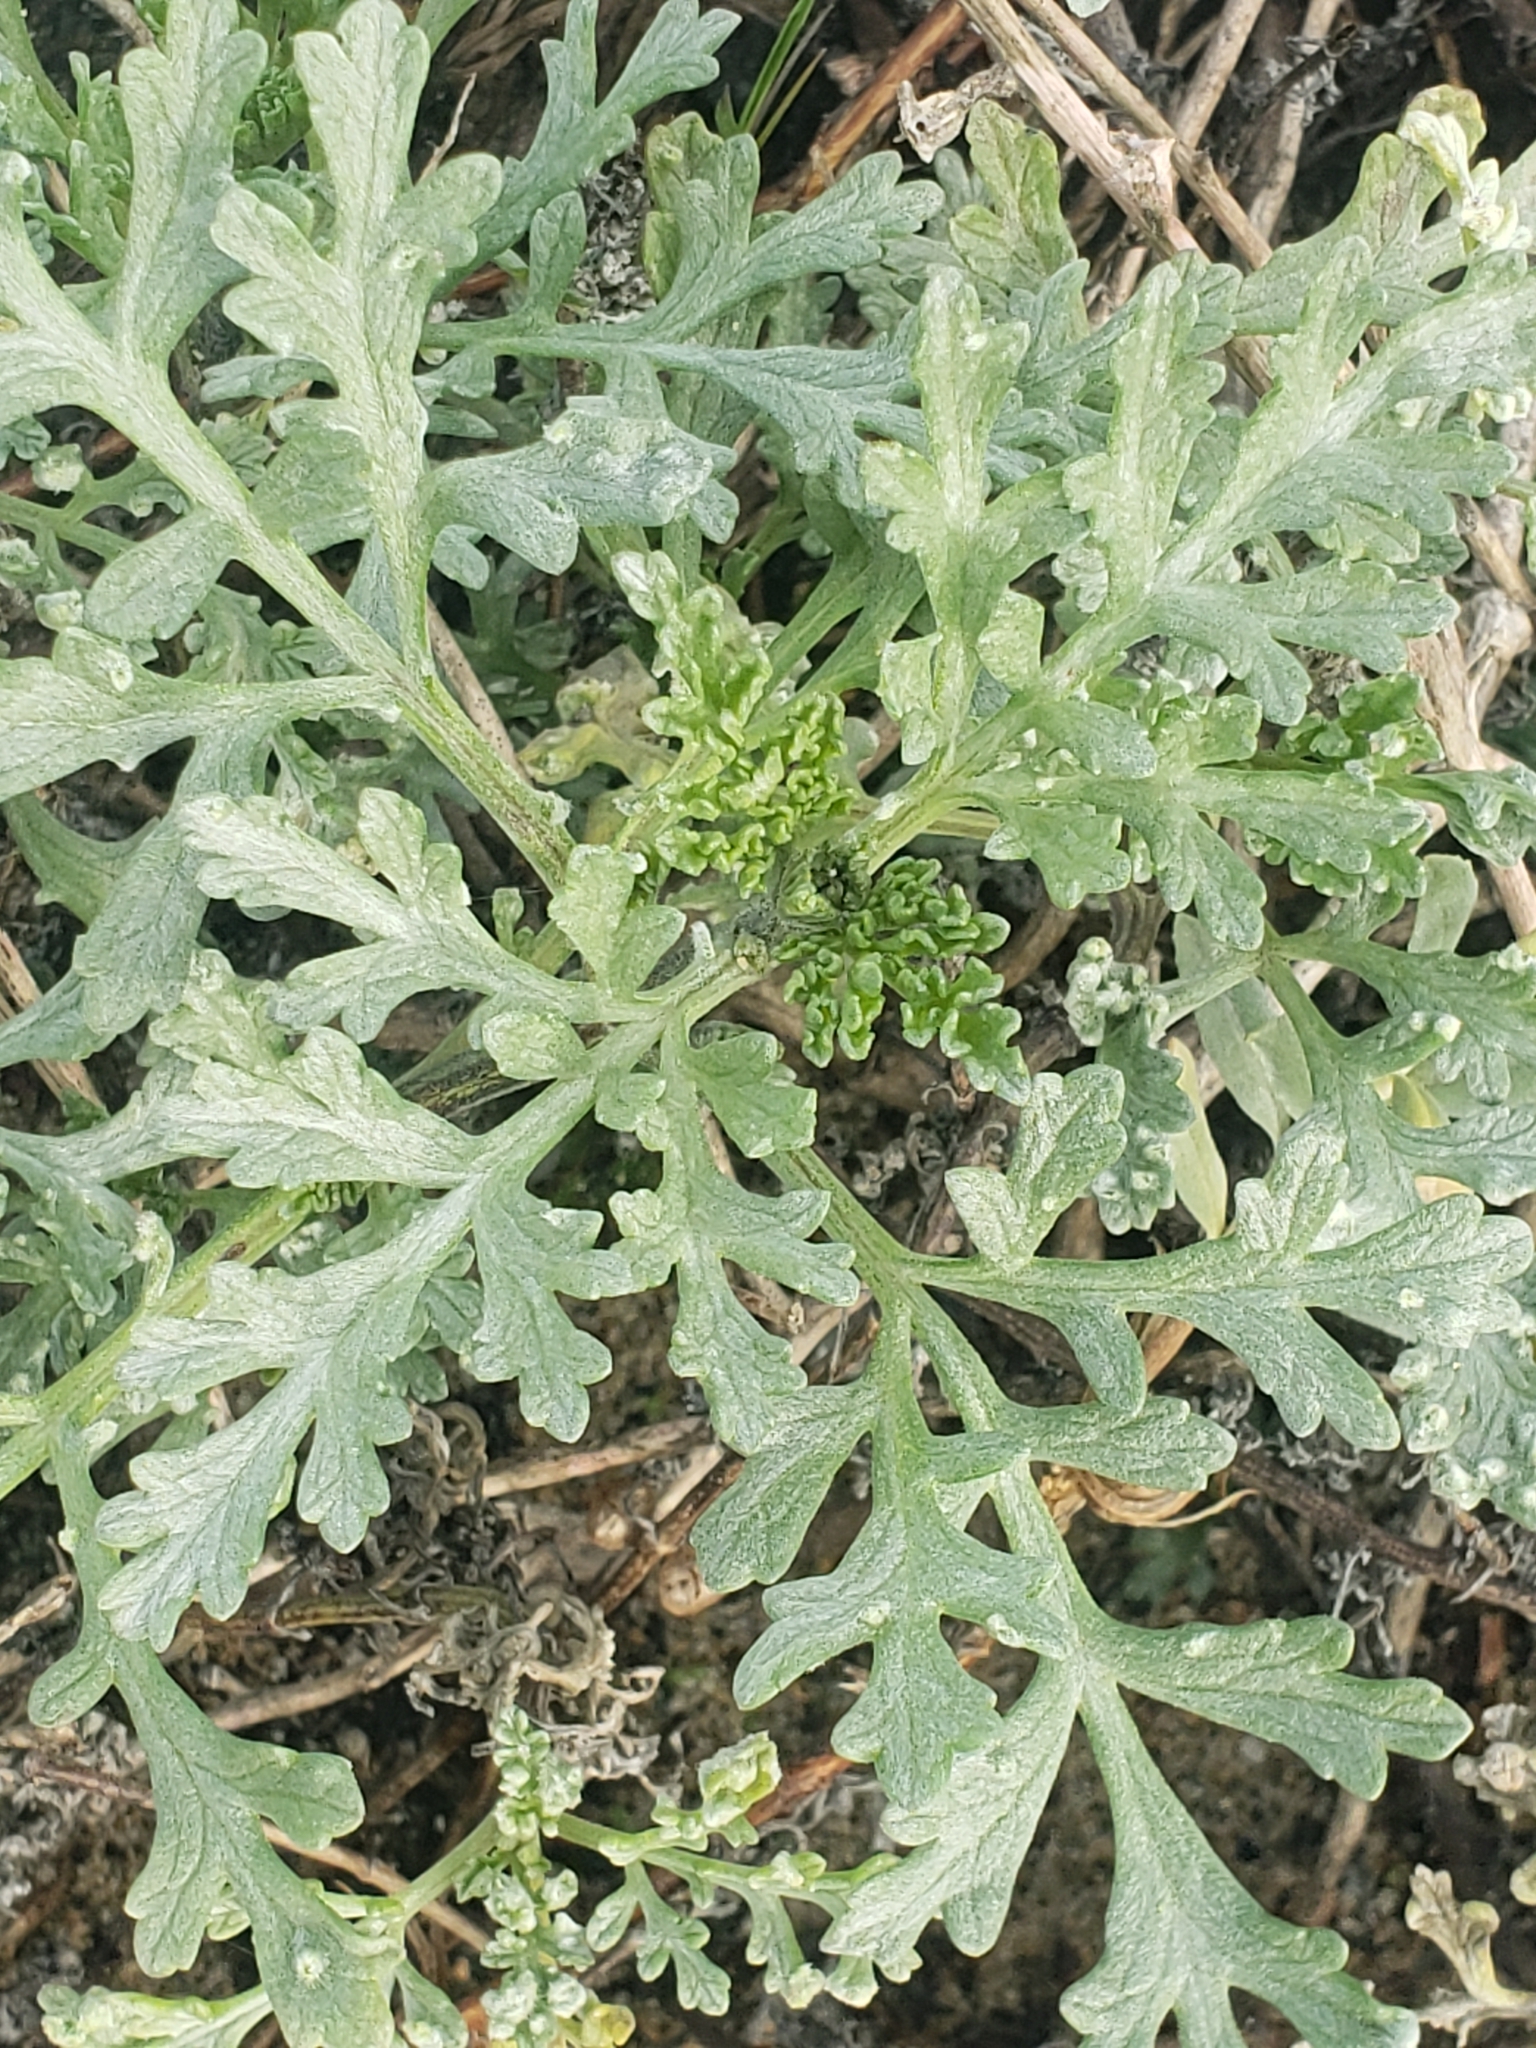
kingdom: Plantae
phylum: Tracheophyta
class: Magnoliopsida
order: Asterales
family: Asteraceae
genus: Ambrosia
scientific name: Ambrosia chamissonis
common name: Beachbur
